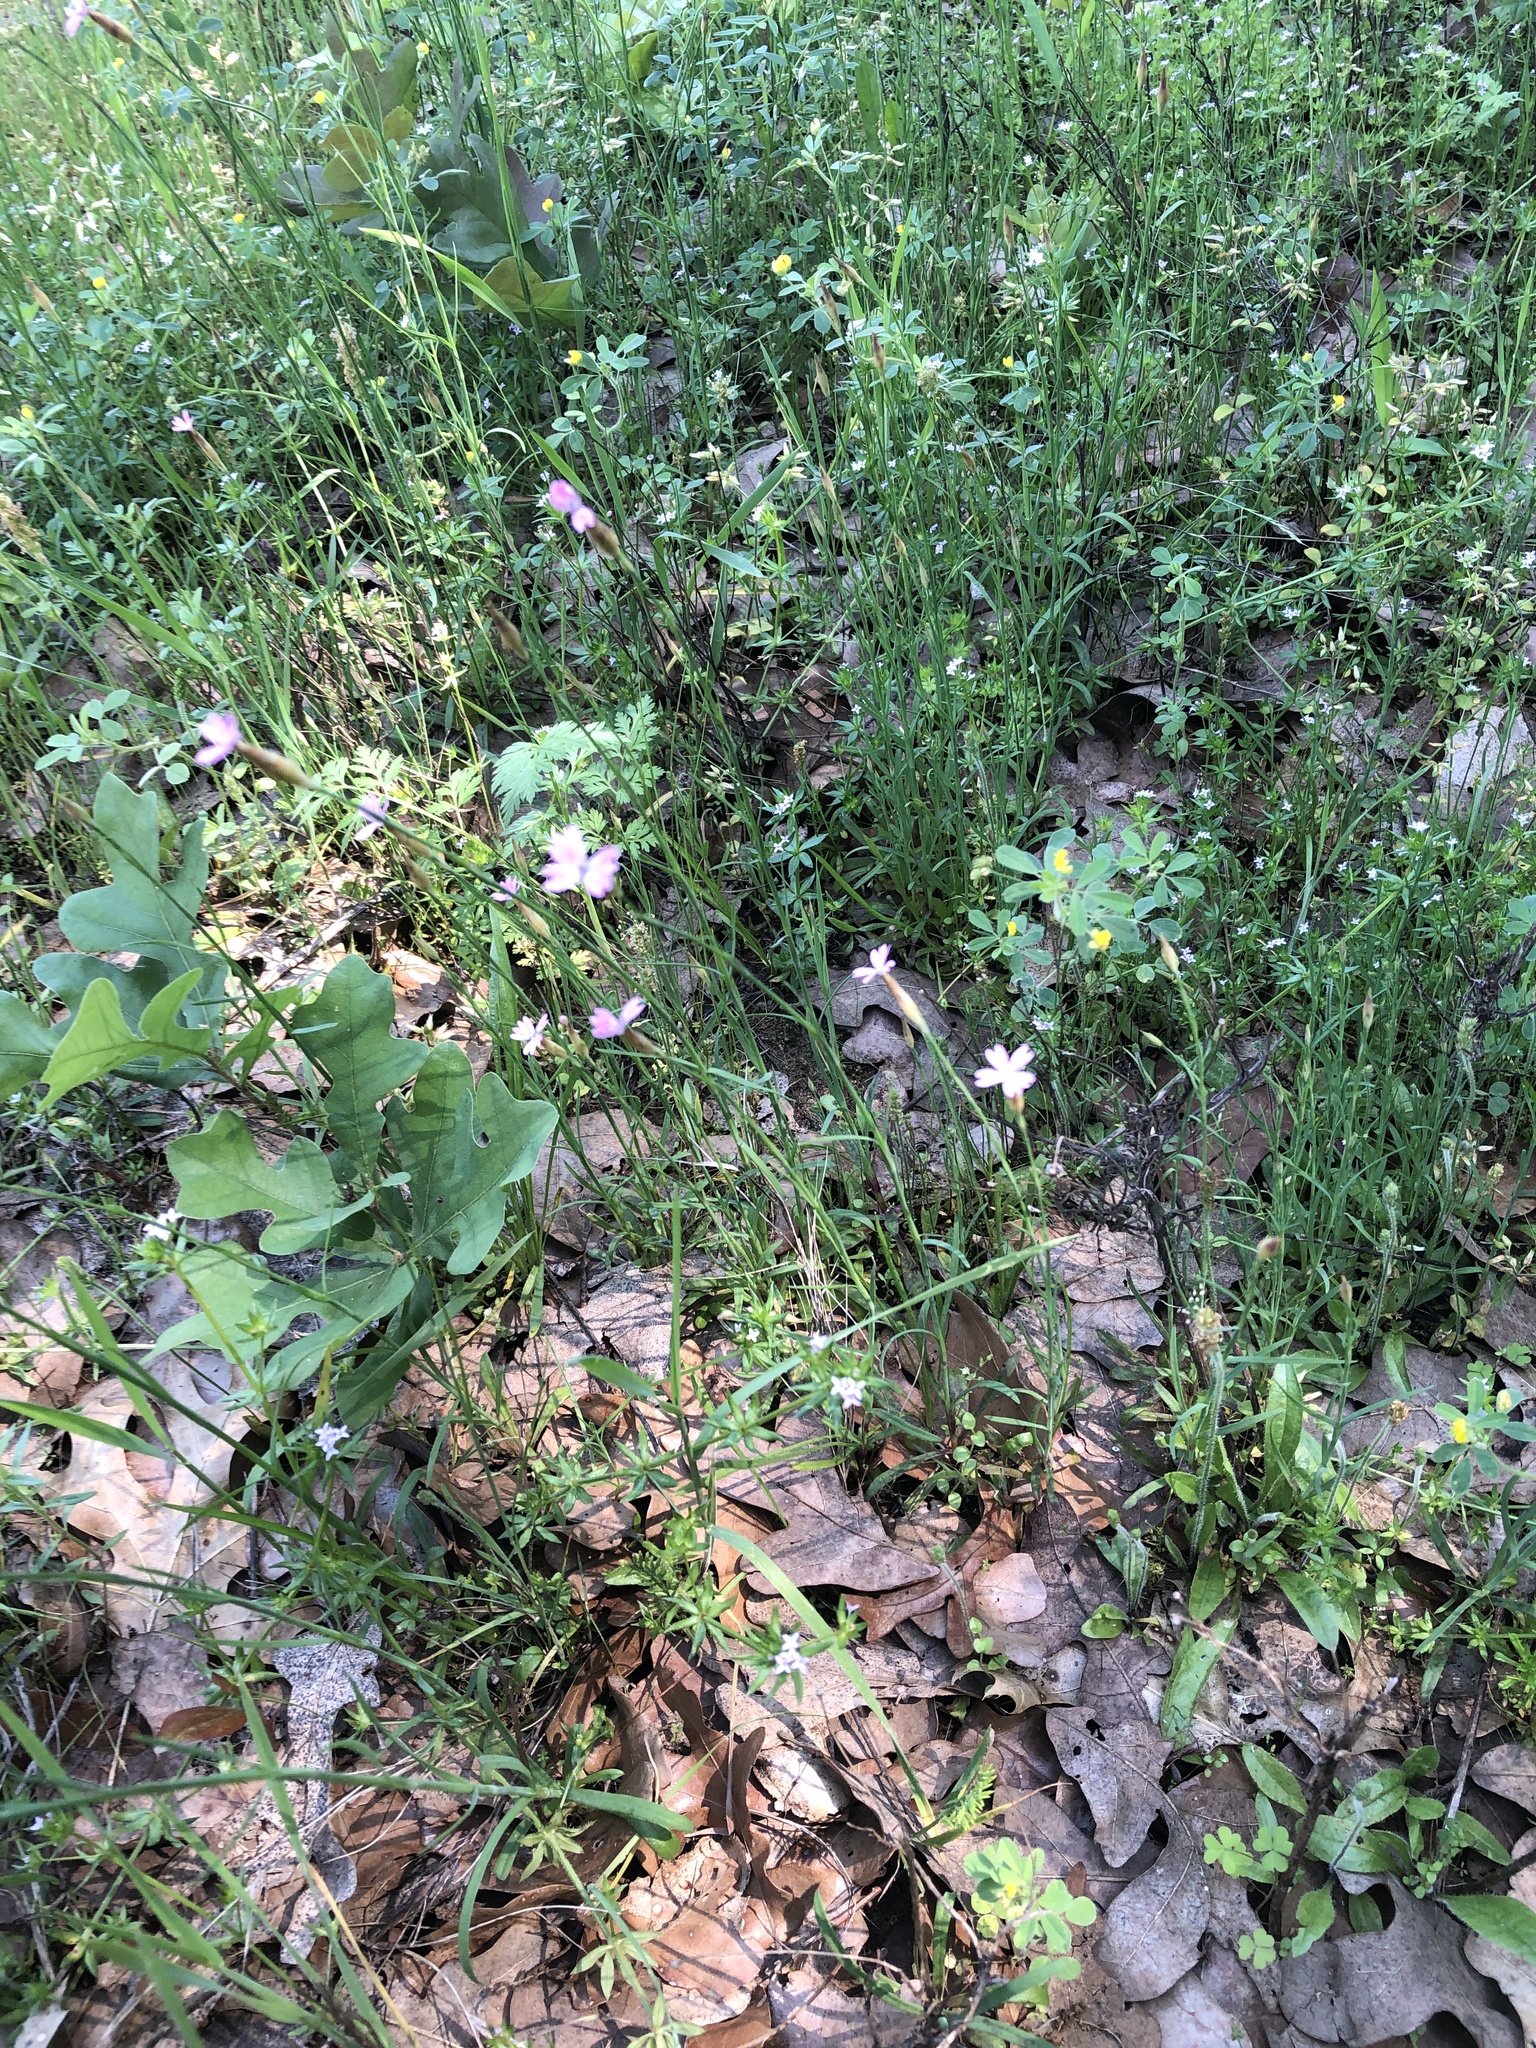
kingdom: Plantae
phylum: Tracheophyta
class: Magnoliopsida
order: Caryophyllales
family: Caryophyllaceae
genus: Petrorhagia
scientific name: Petrorhagia dubia
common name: Hairypink
